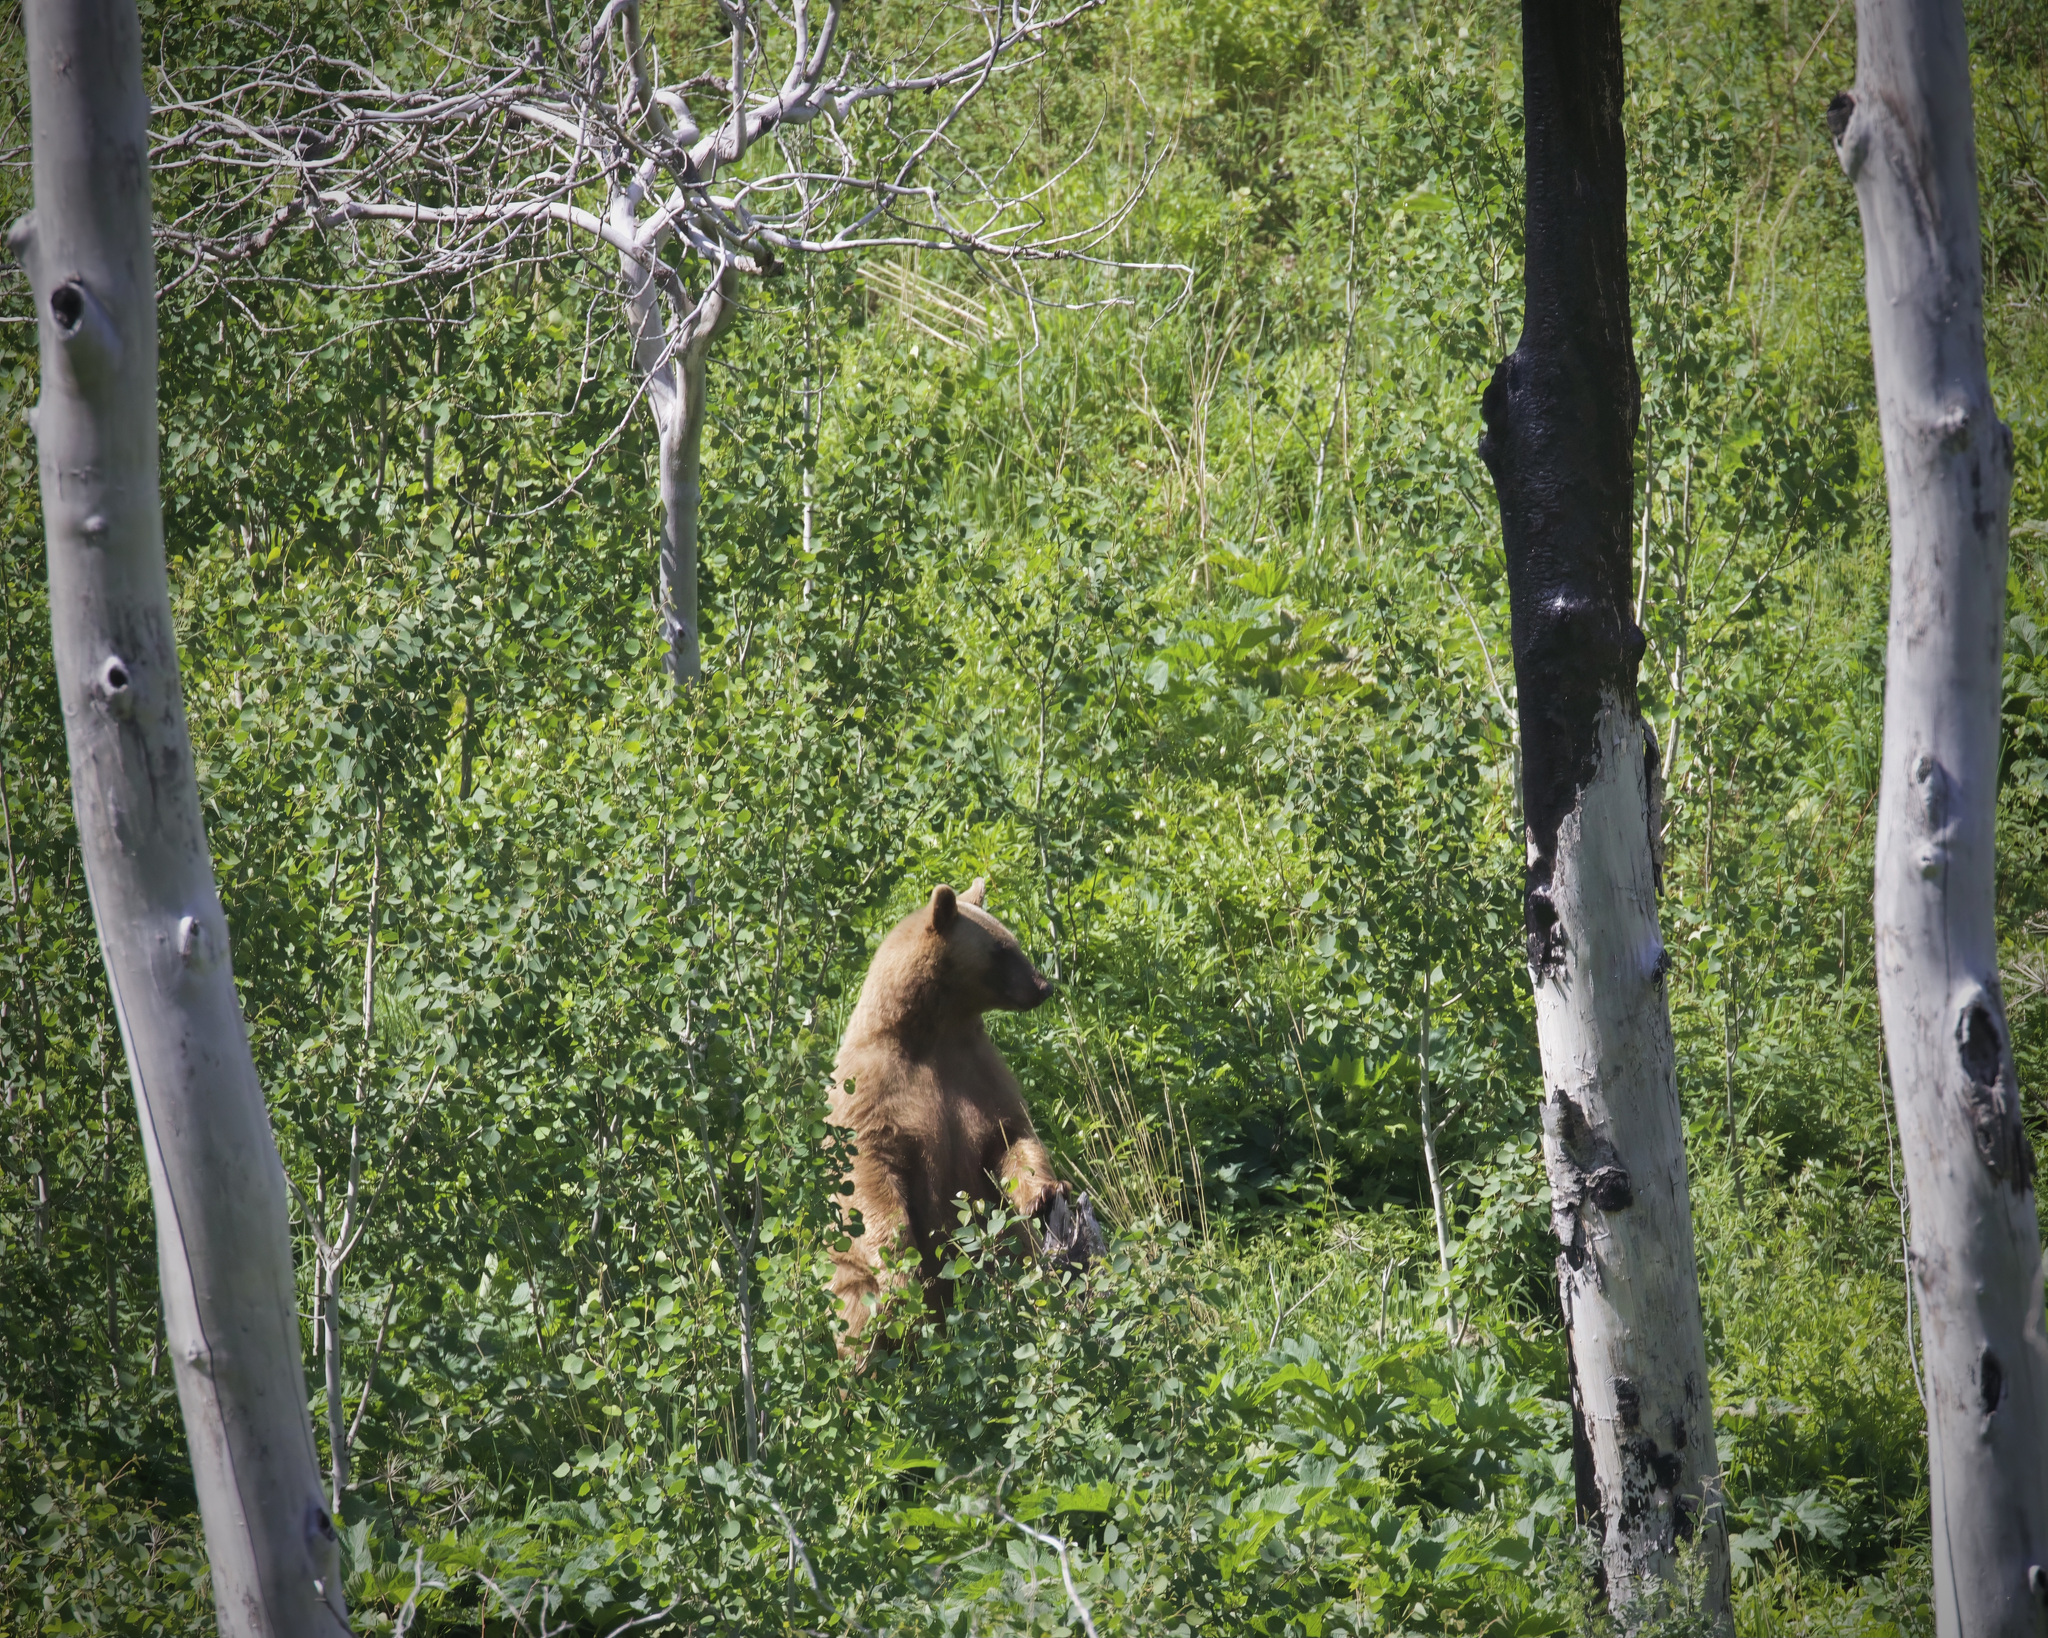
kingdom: Animalia
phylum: Chordata
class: Mammalia
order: Carnivora
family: Ursidae
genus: Ursus
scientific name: Ursus americanus
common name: American black bear
